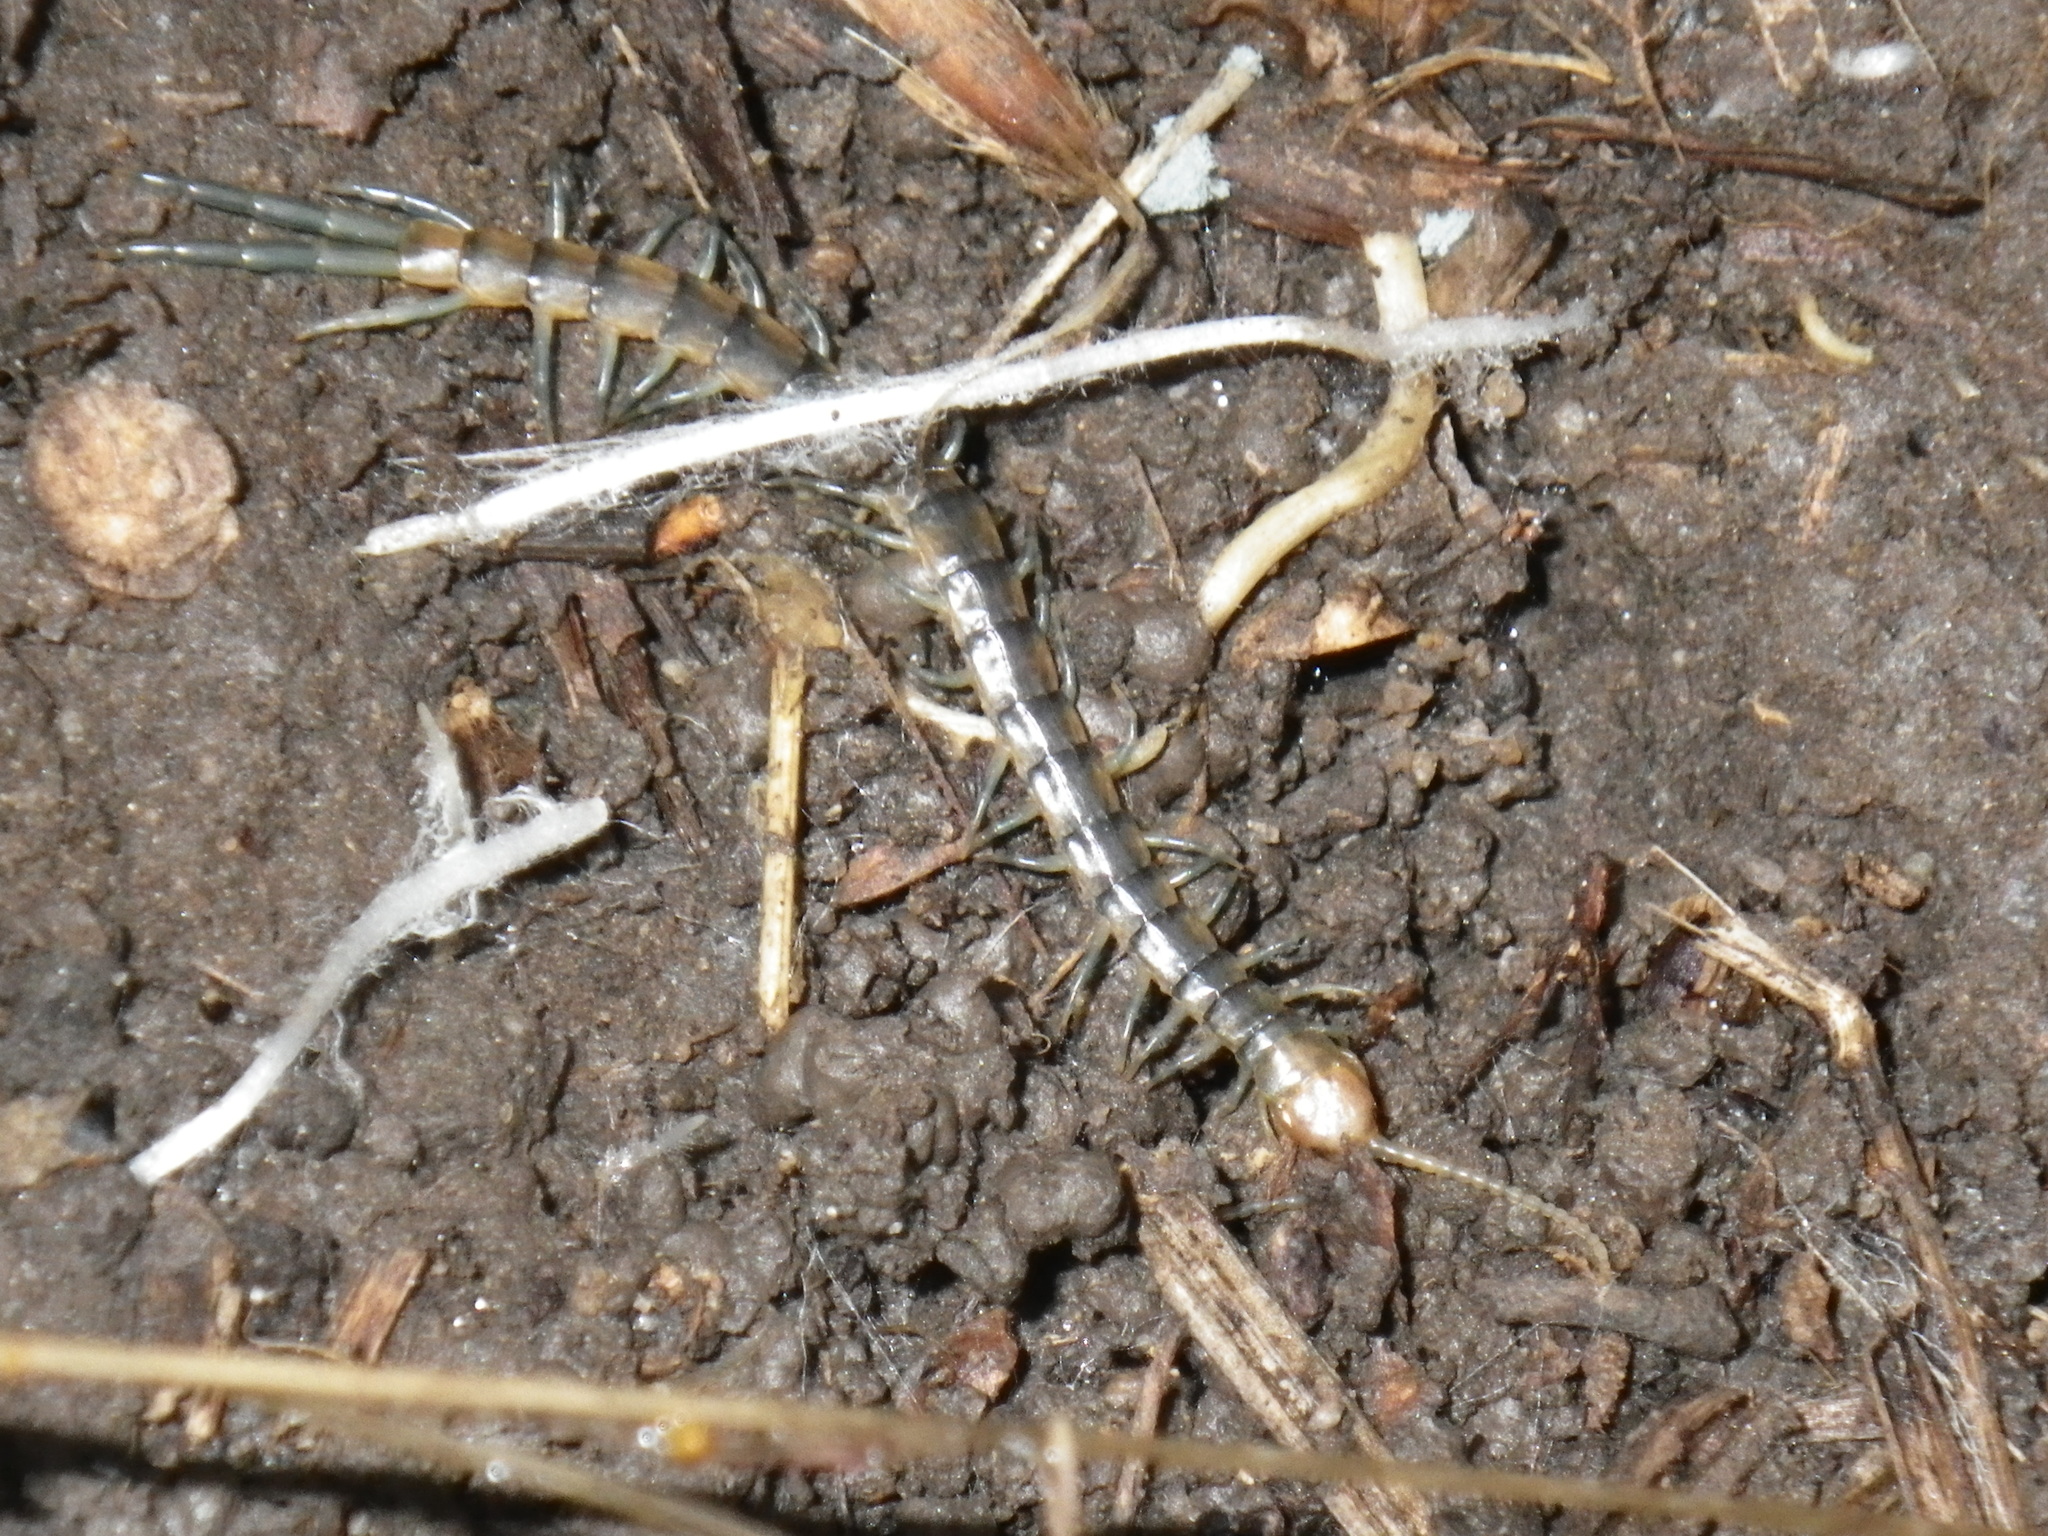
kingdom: Animalia
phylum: Arthropoda
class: Chilopoda
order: Scolopendromorpha
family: Scolopendridae
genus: Scolopendra
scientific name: Scolopendra polymorpha
